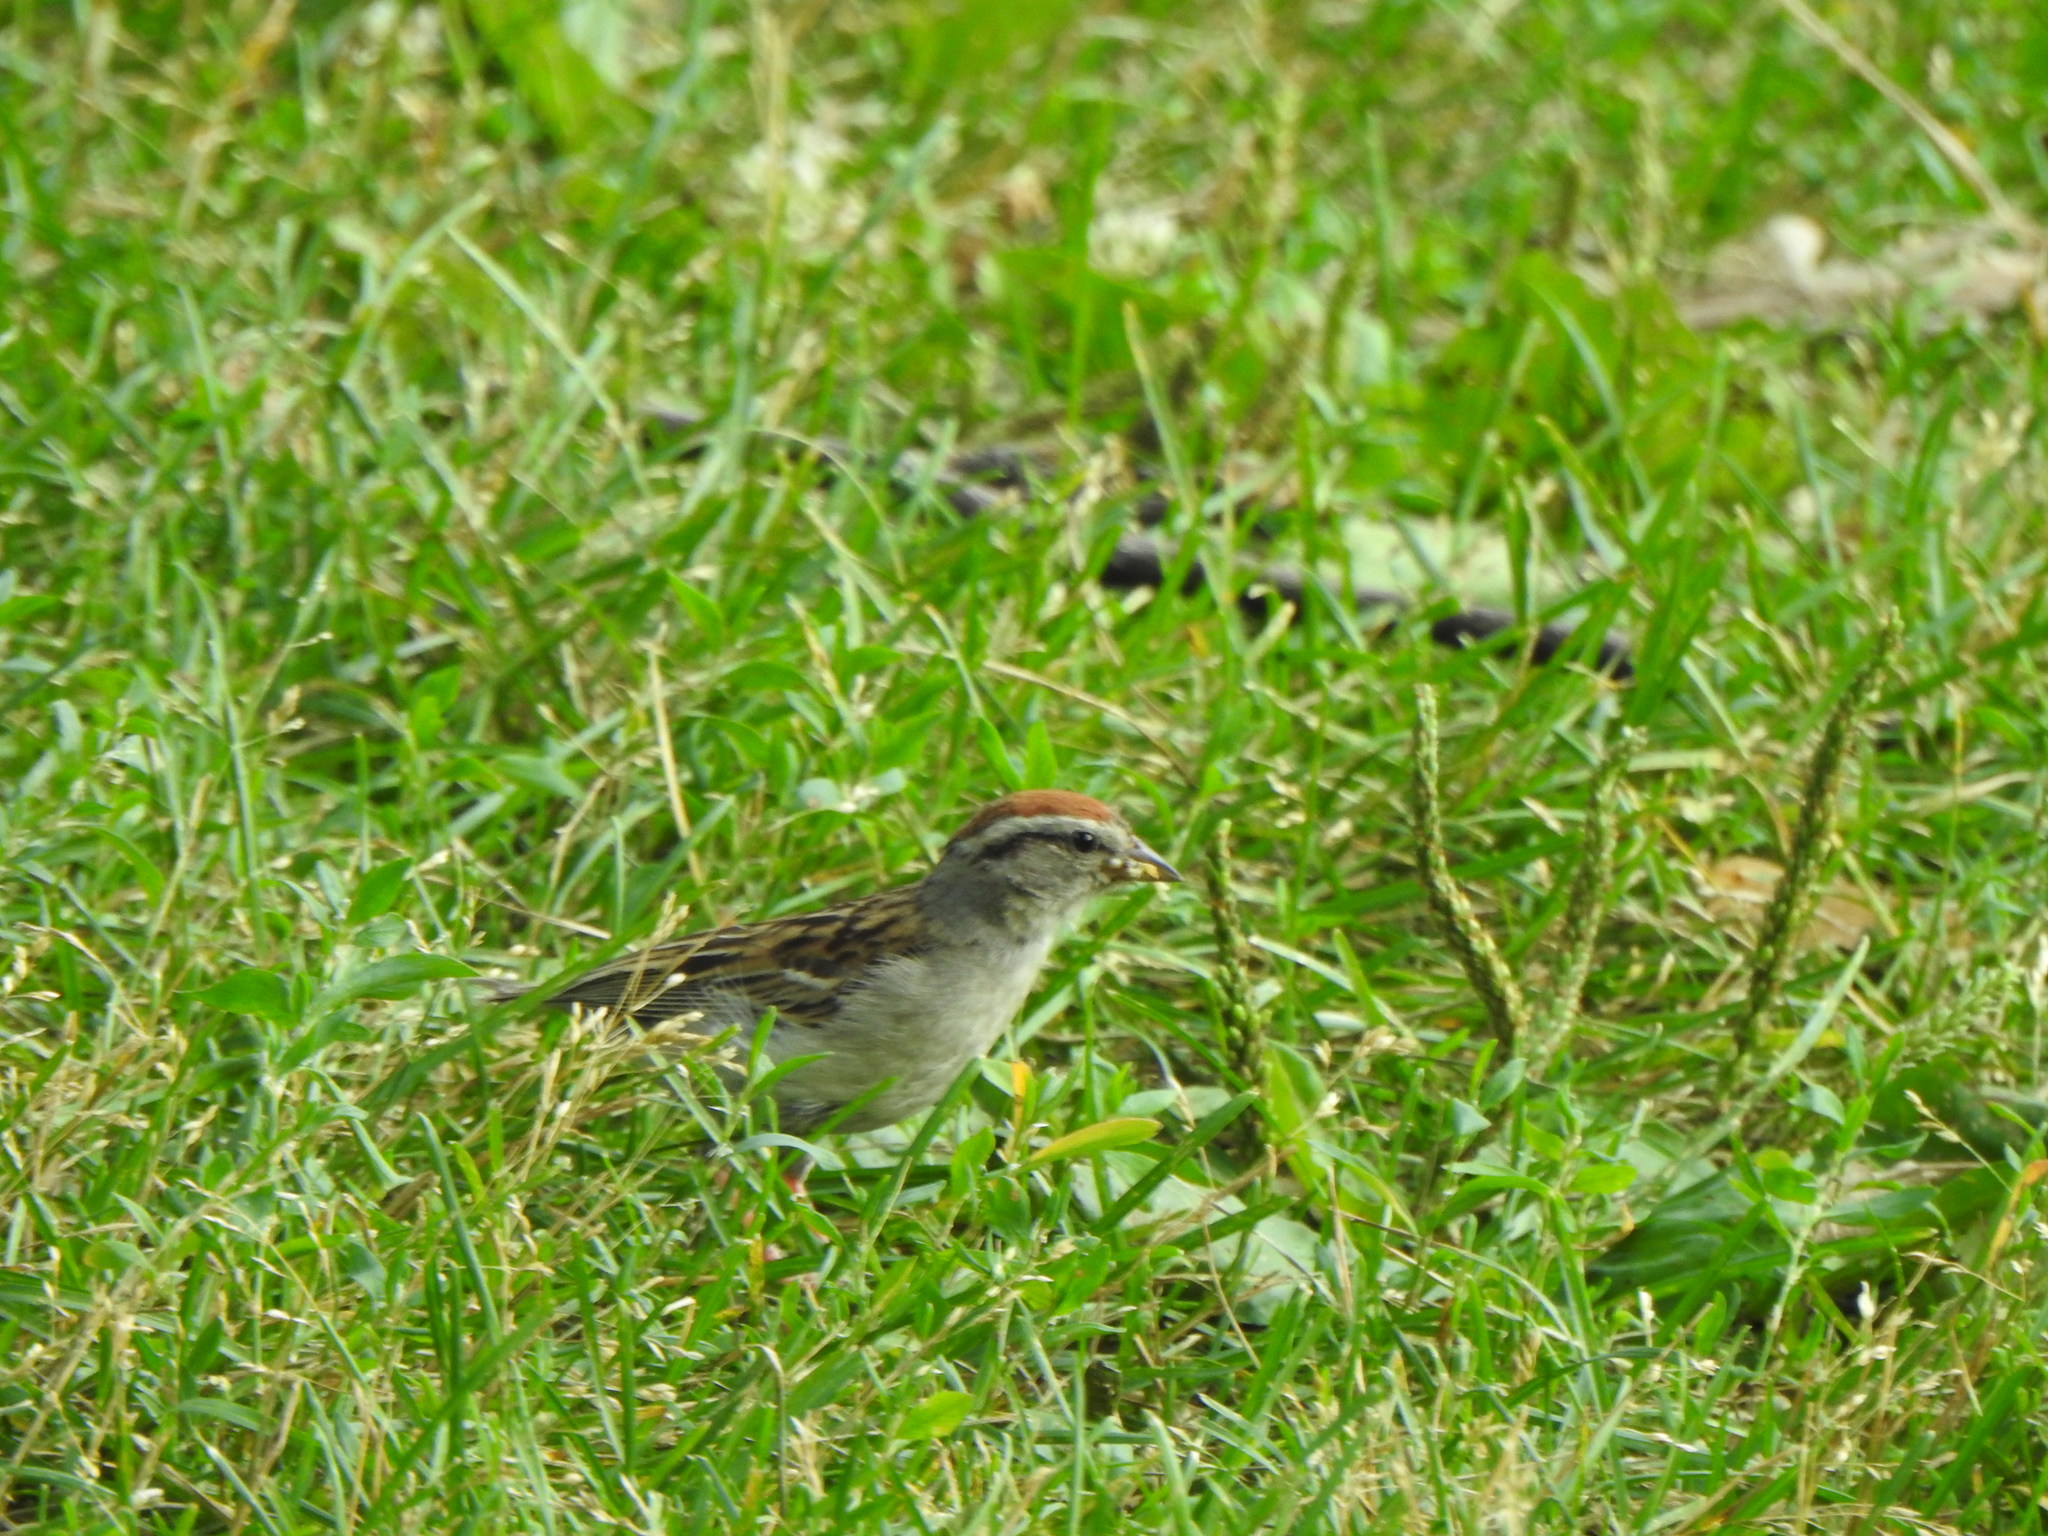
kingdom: Animalia
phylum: Chordata
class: Aves
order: Passeriformes
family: Passerellidae
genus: Spizella
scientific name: Spizella passerina
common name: Chipping sparrow
